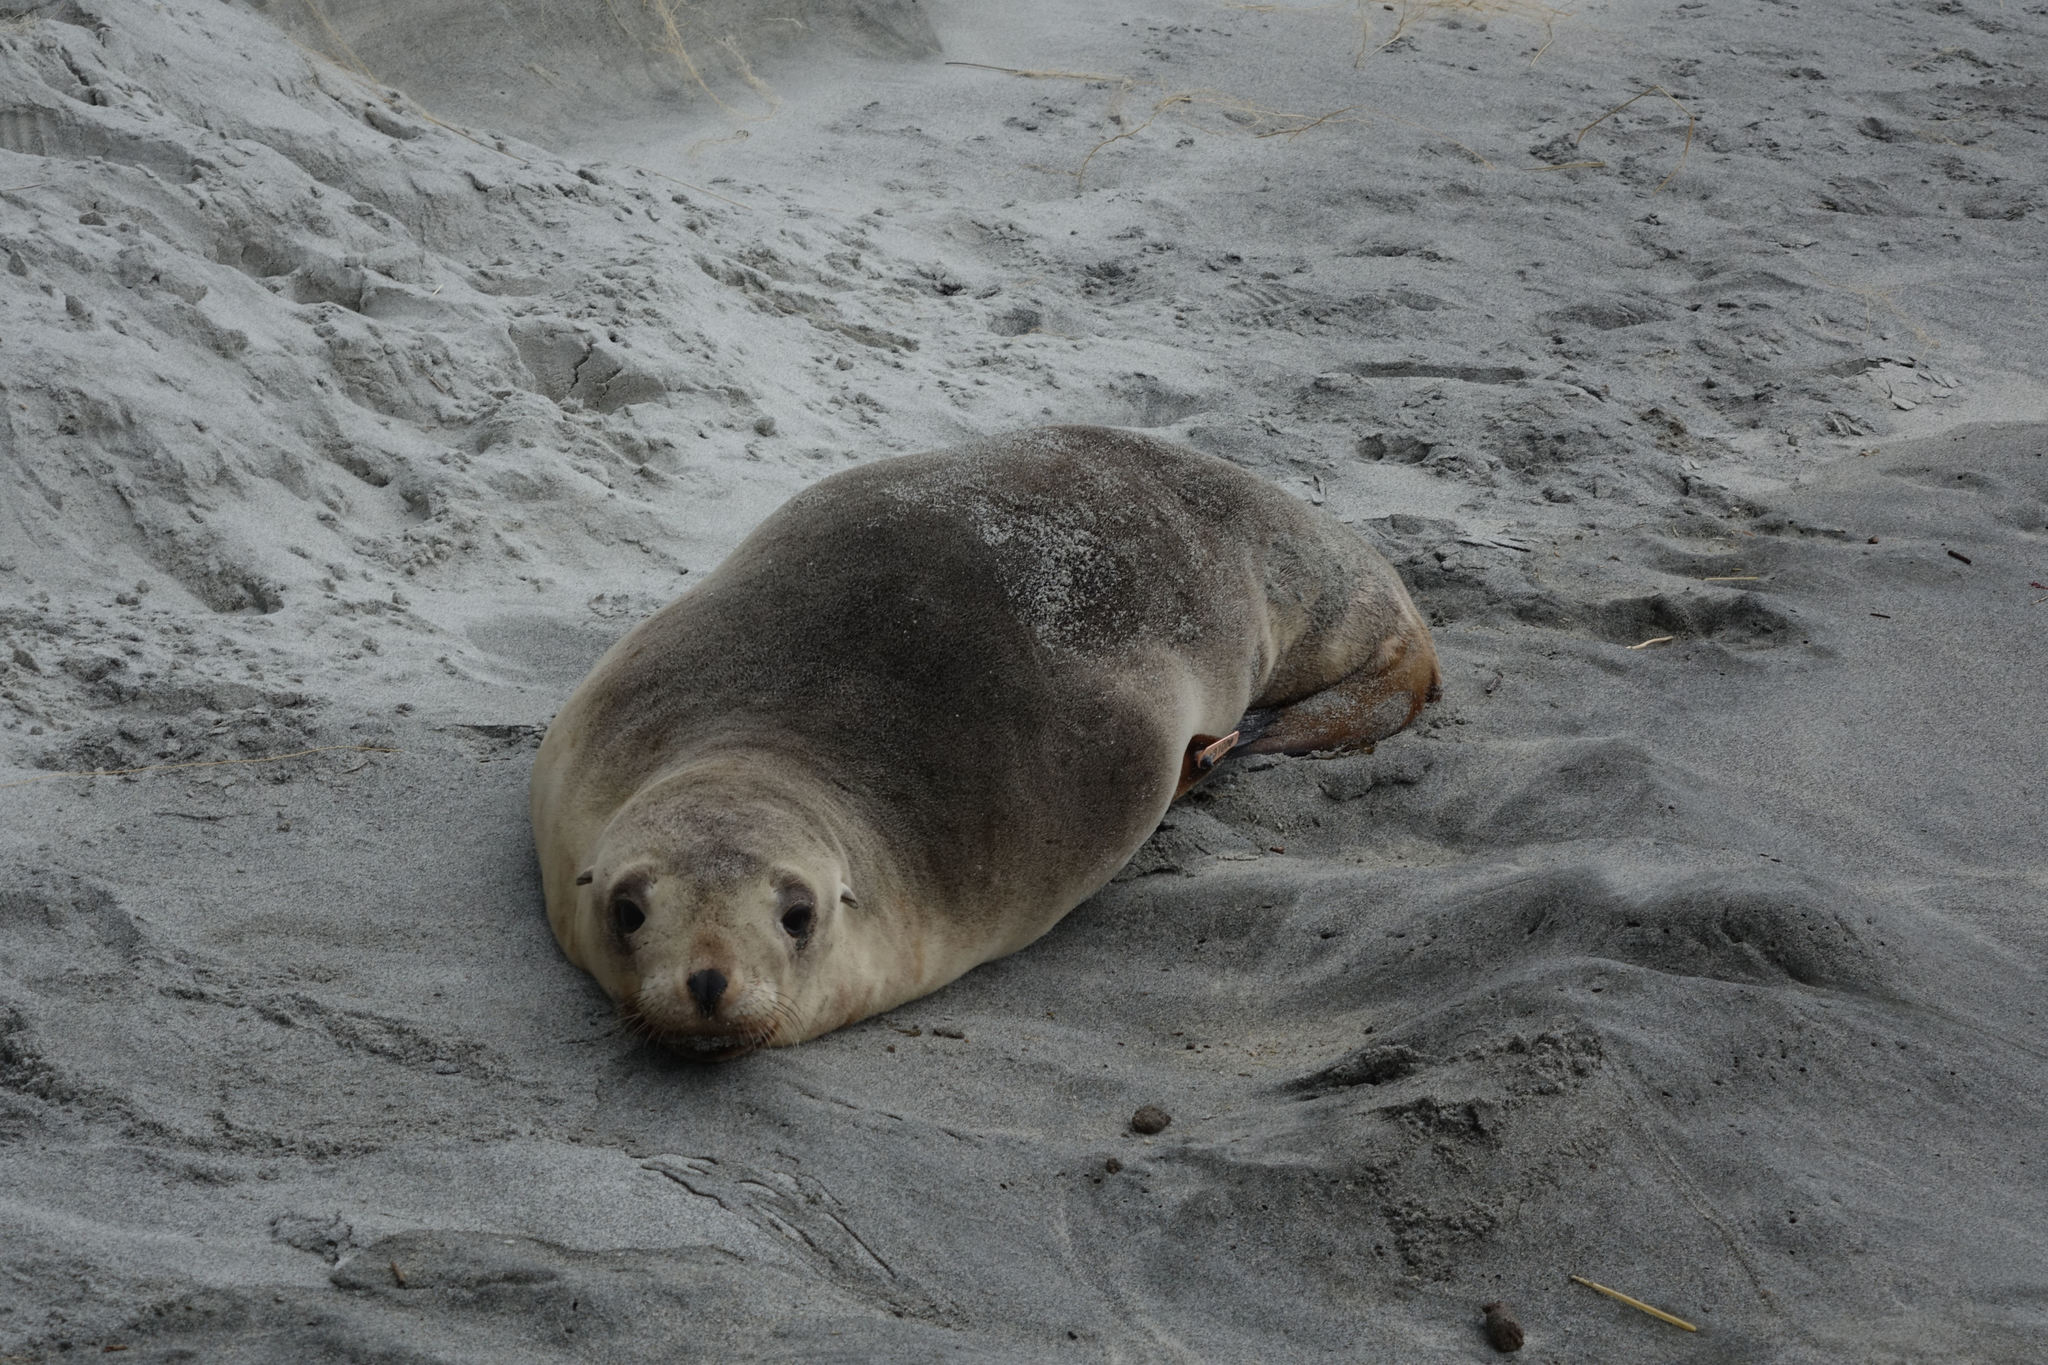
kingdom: Animalia
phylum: Chordata
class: Mammalia
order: Carnivora
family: Otariidae
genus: Phocarctos
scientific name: Phocarctos hookeri
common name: New zealand sea lion
